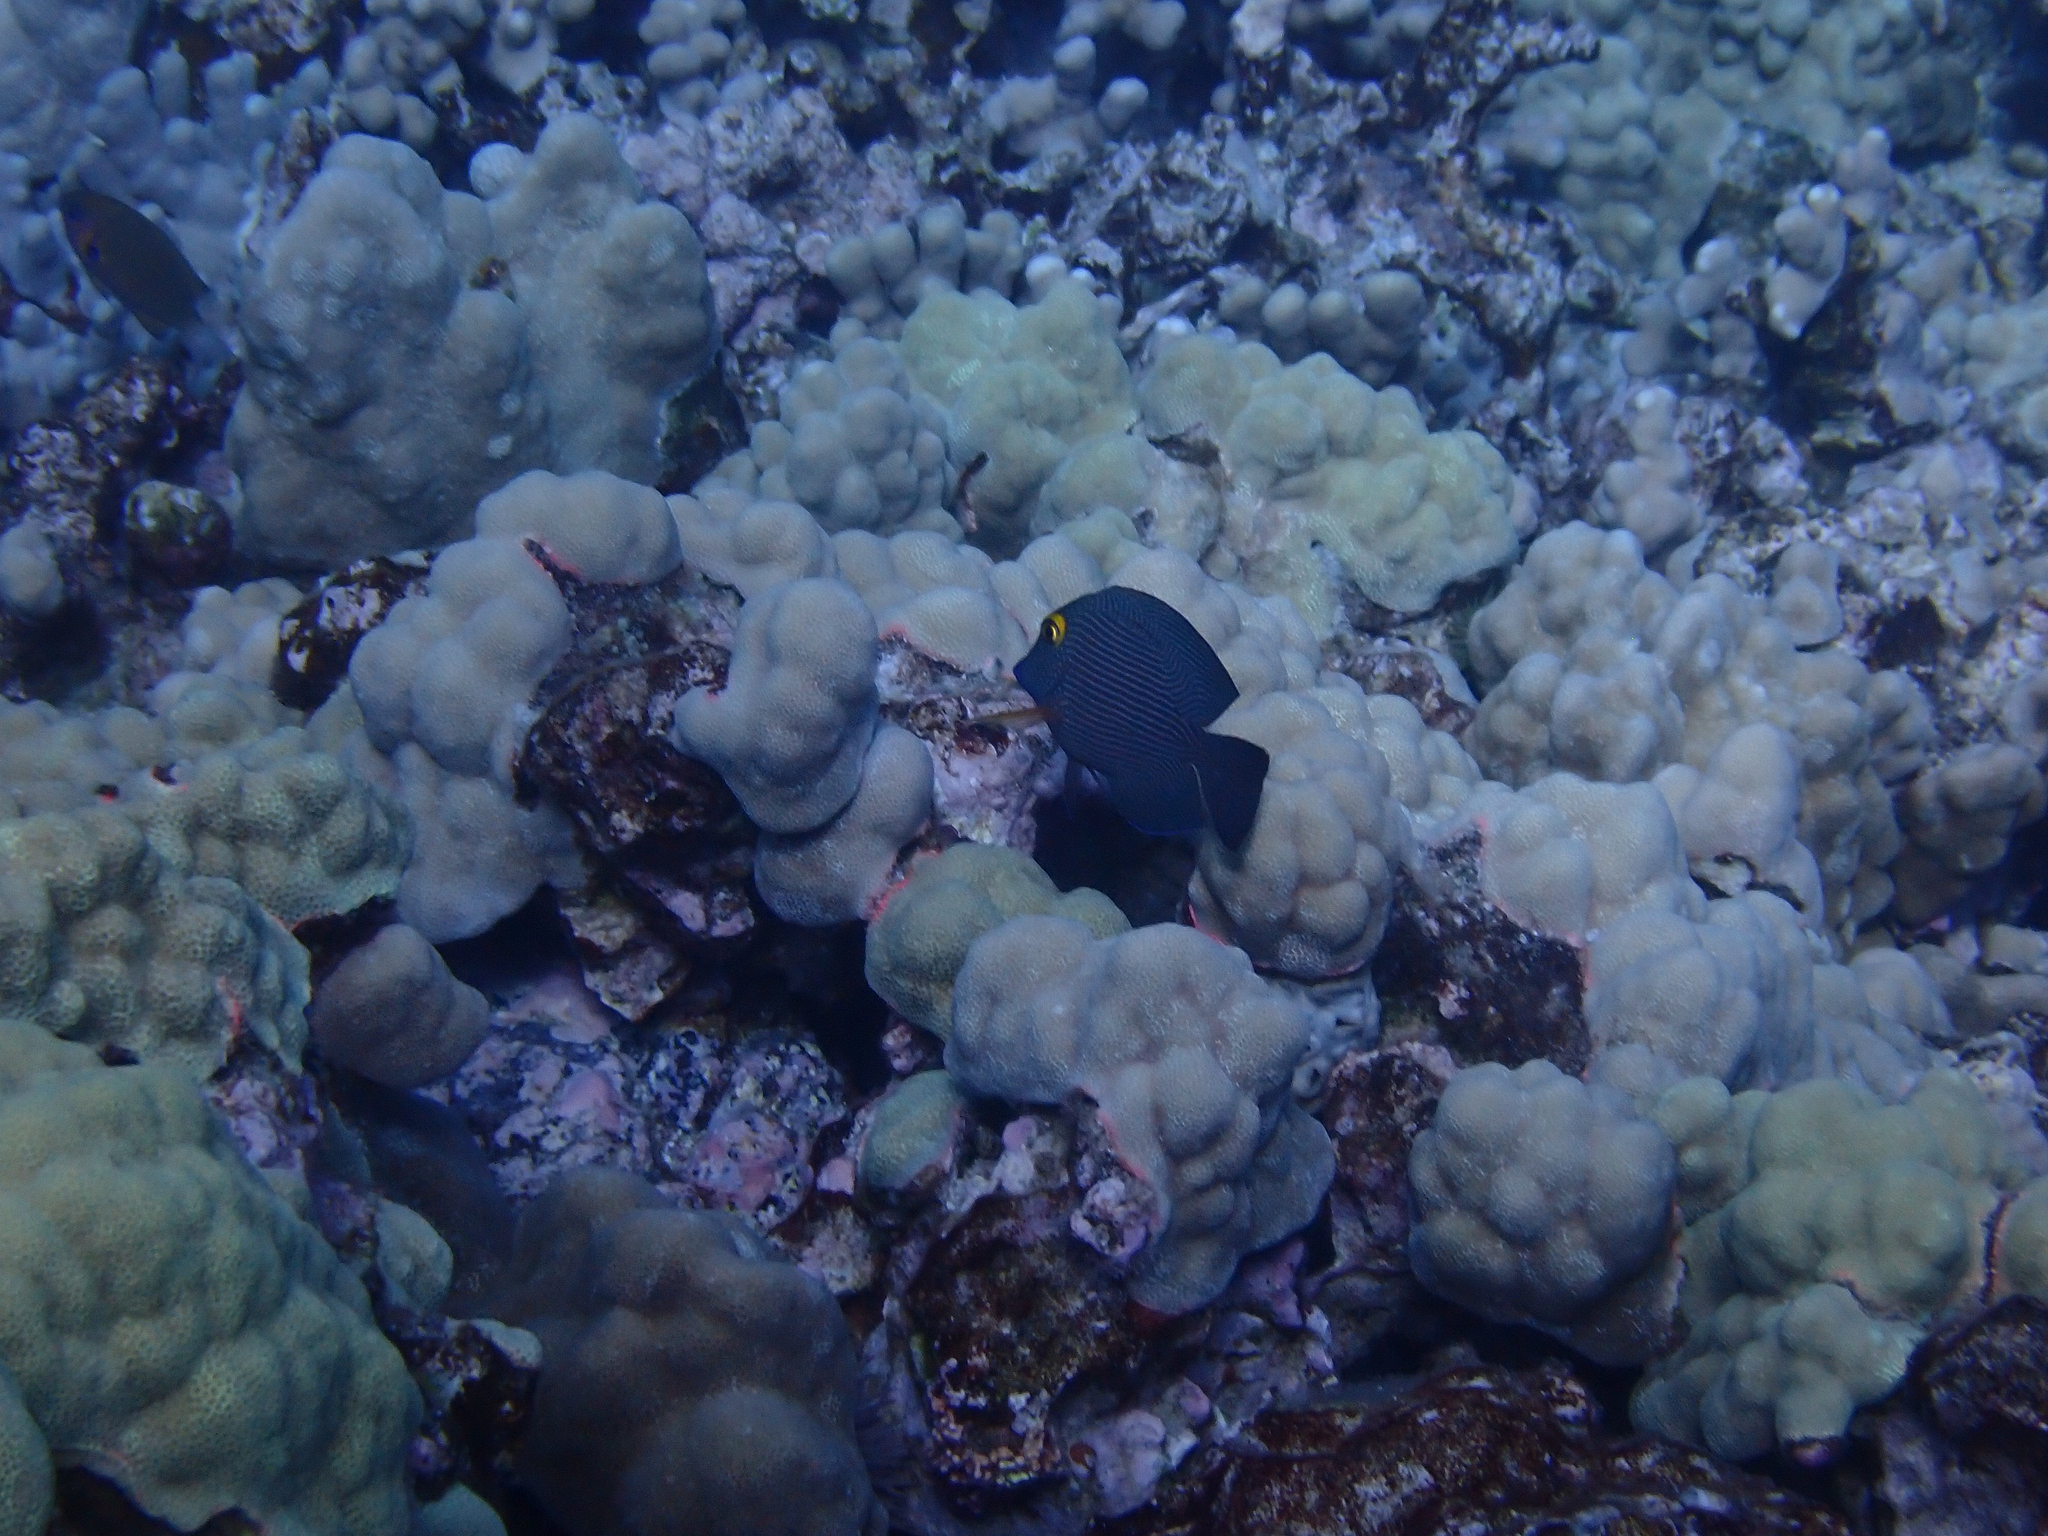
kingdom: Animalia
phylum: Chordata
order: Perciformes
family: Acanthuridae
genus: Ctenochaetus
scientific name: Ctenochaetus strigosus
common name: Bristletoothed surgeonfish
